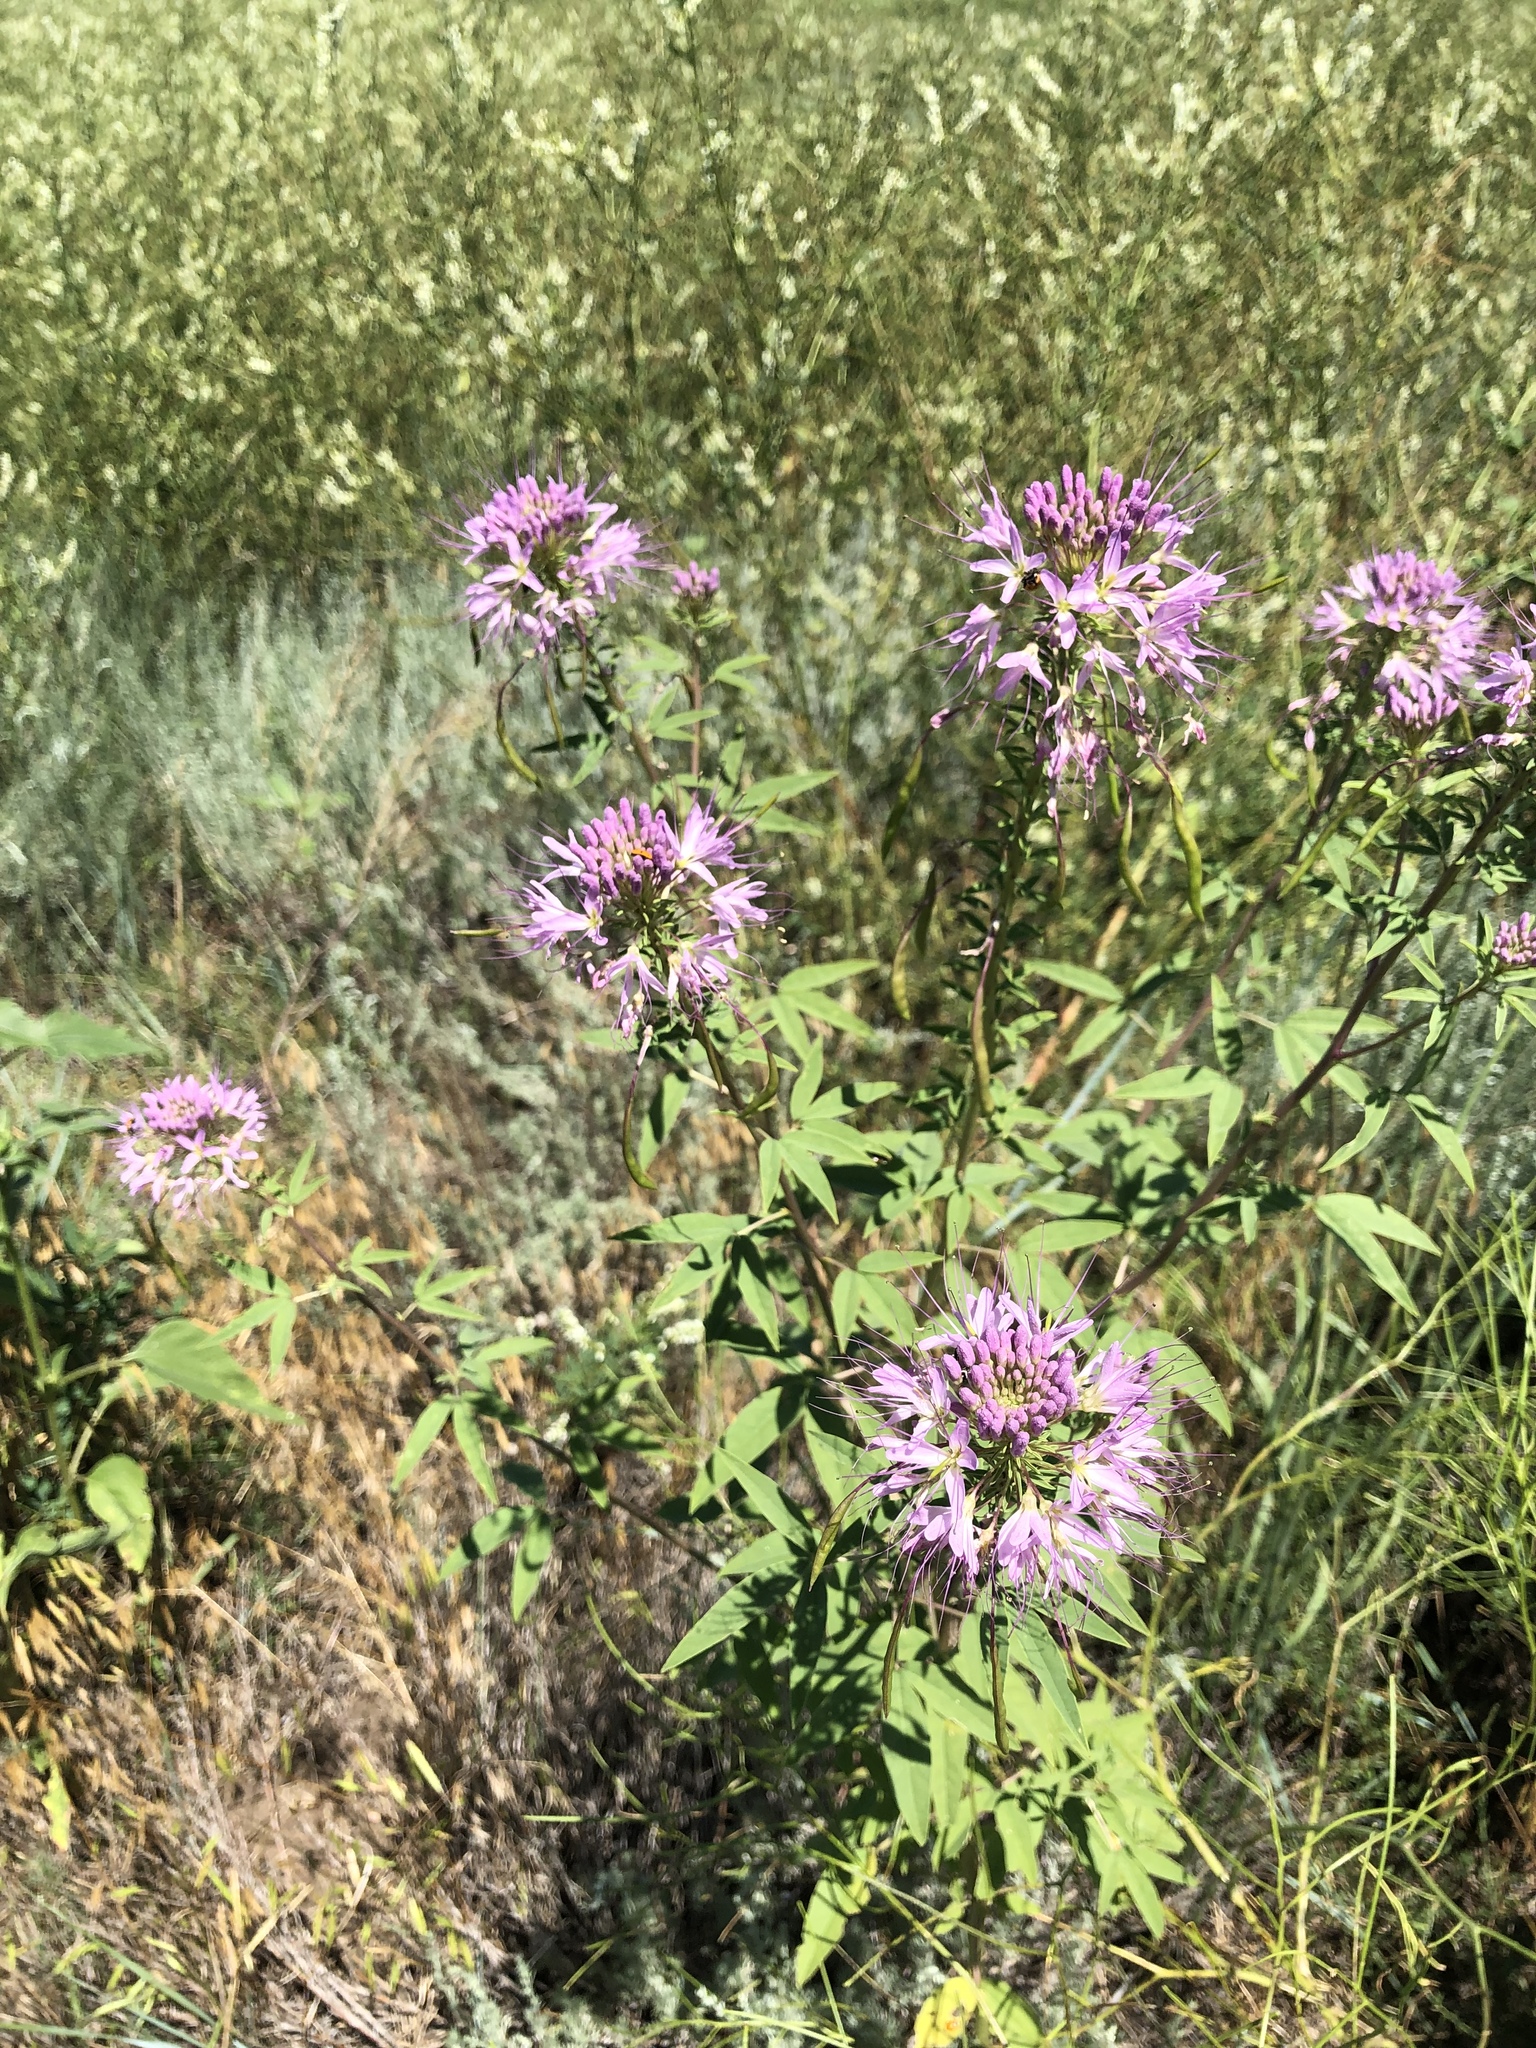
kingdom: Plantae
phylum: Tracheophyta
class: Magnoliopsida
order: Brassicales
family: Cleomaceae
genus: Cleomella
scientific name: Cleomella serrulata
